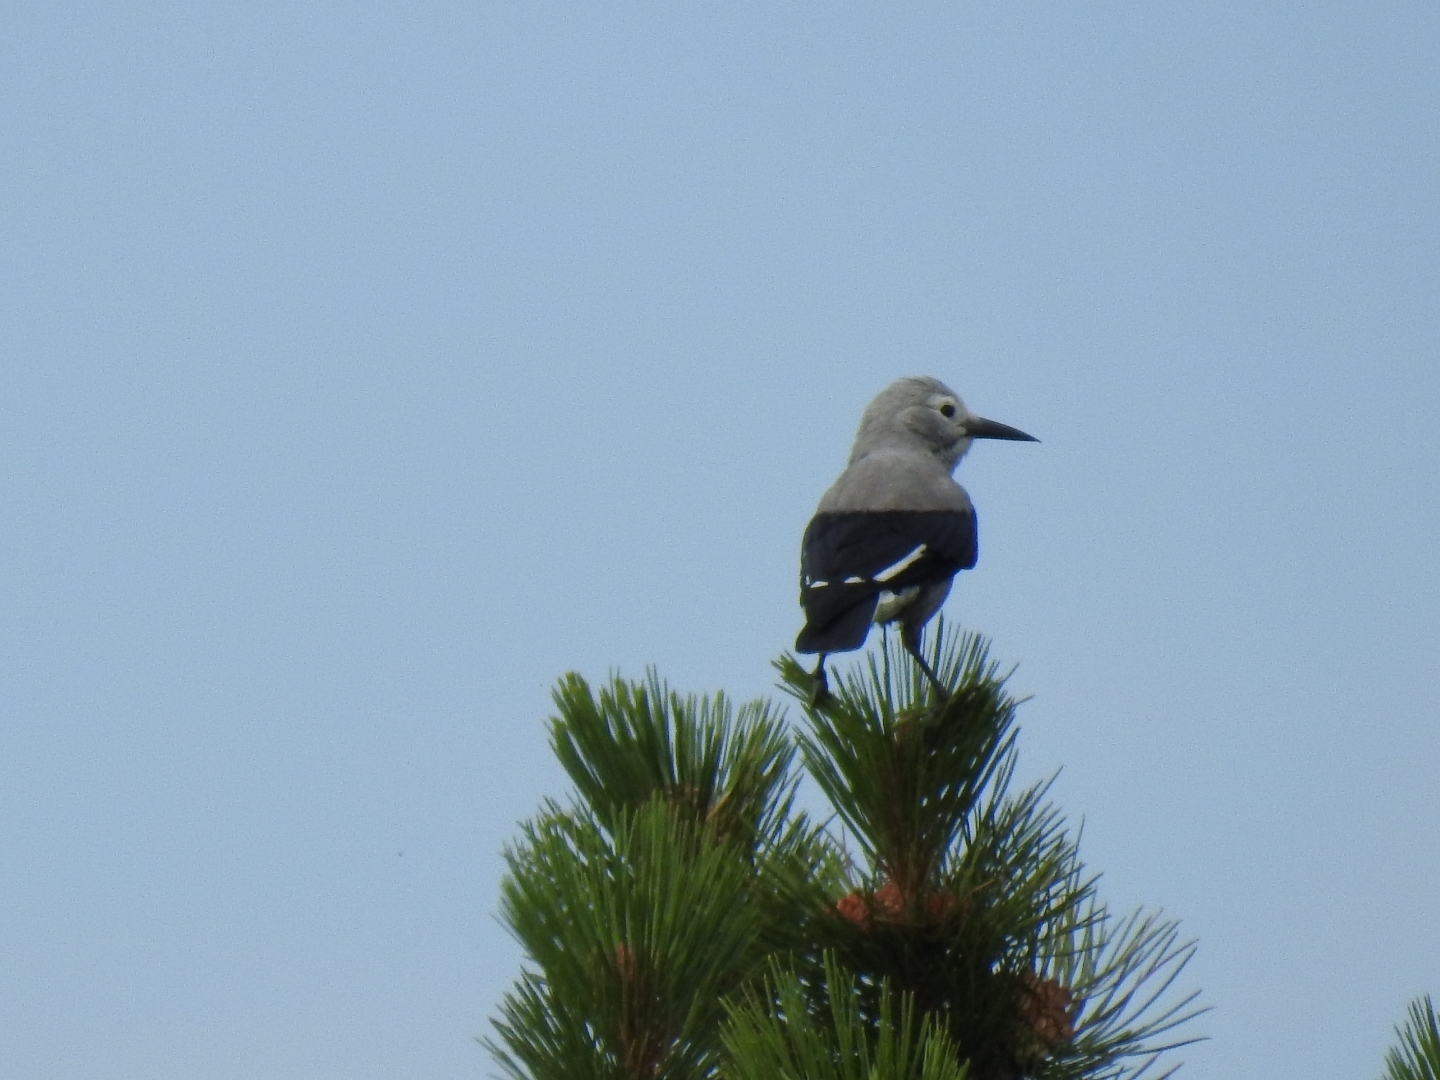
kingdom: Animalia
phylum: Chordata
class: Aves
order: Passeriformes
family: Corvidae
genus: Nucifraga
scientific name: Nucifraga columbiana
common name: Clark's nutcracker
